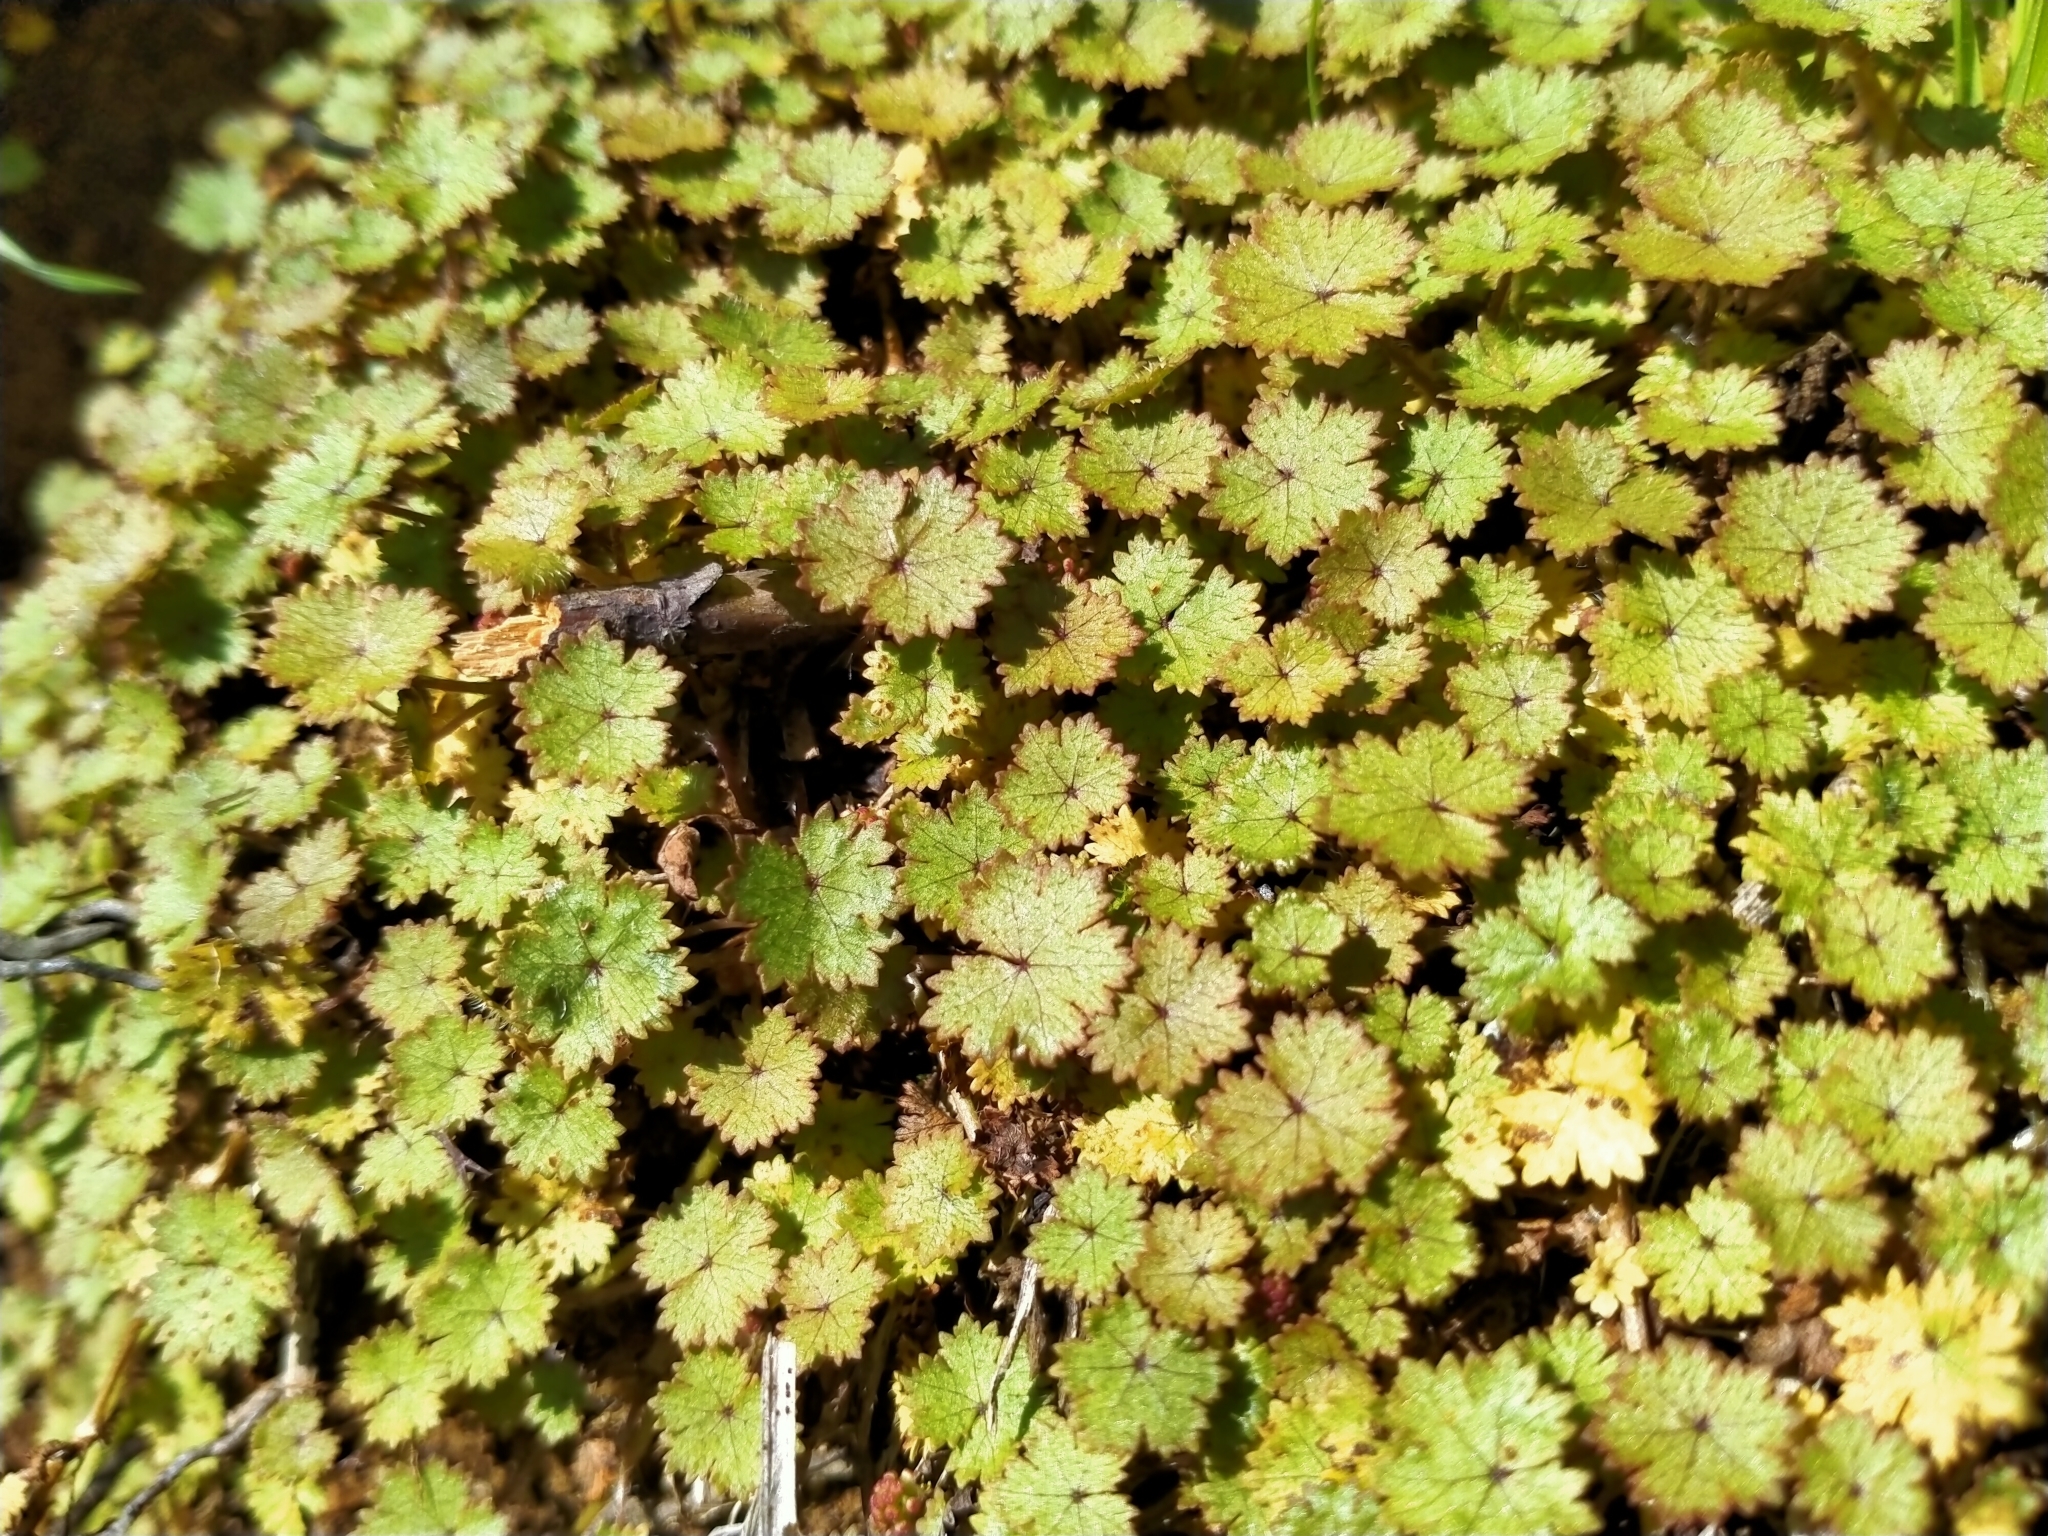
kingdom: Plantae
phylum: Tracheophyta
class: Magnoliopsida
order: Apiales
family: Araliaceae
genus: Hydrocotyle
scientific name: Hydrocotyle moschata
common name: Hairy pennywort
